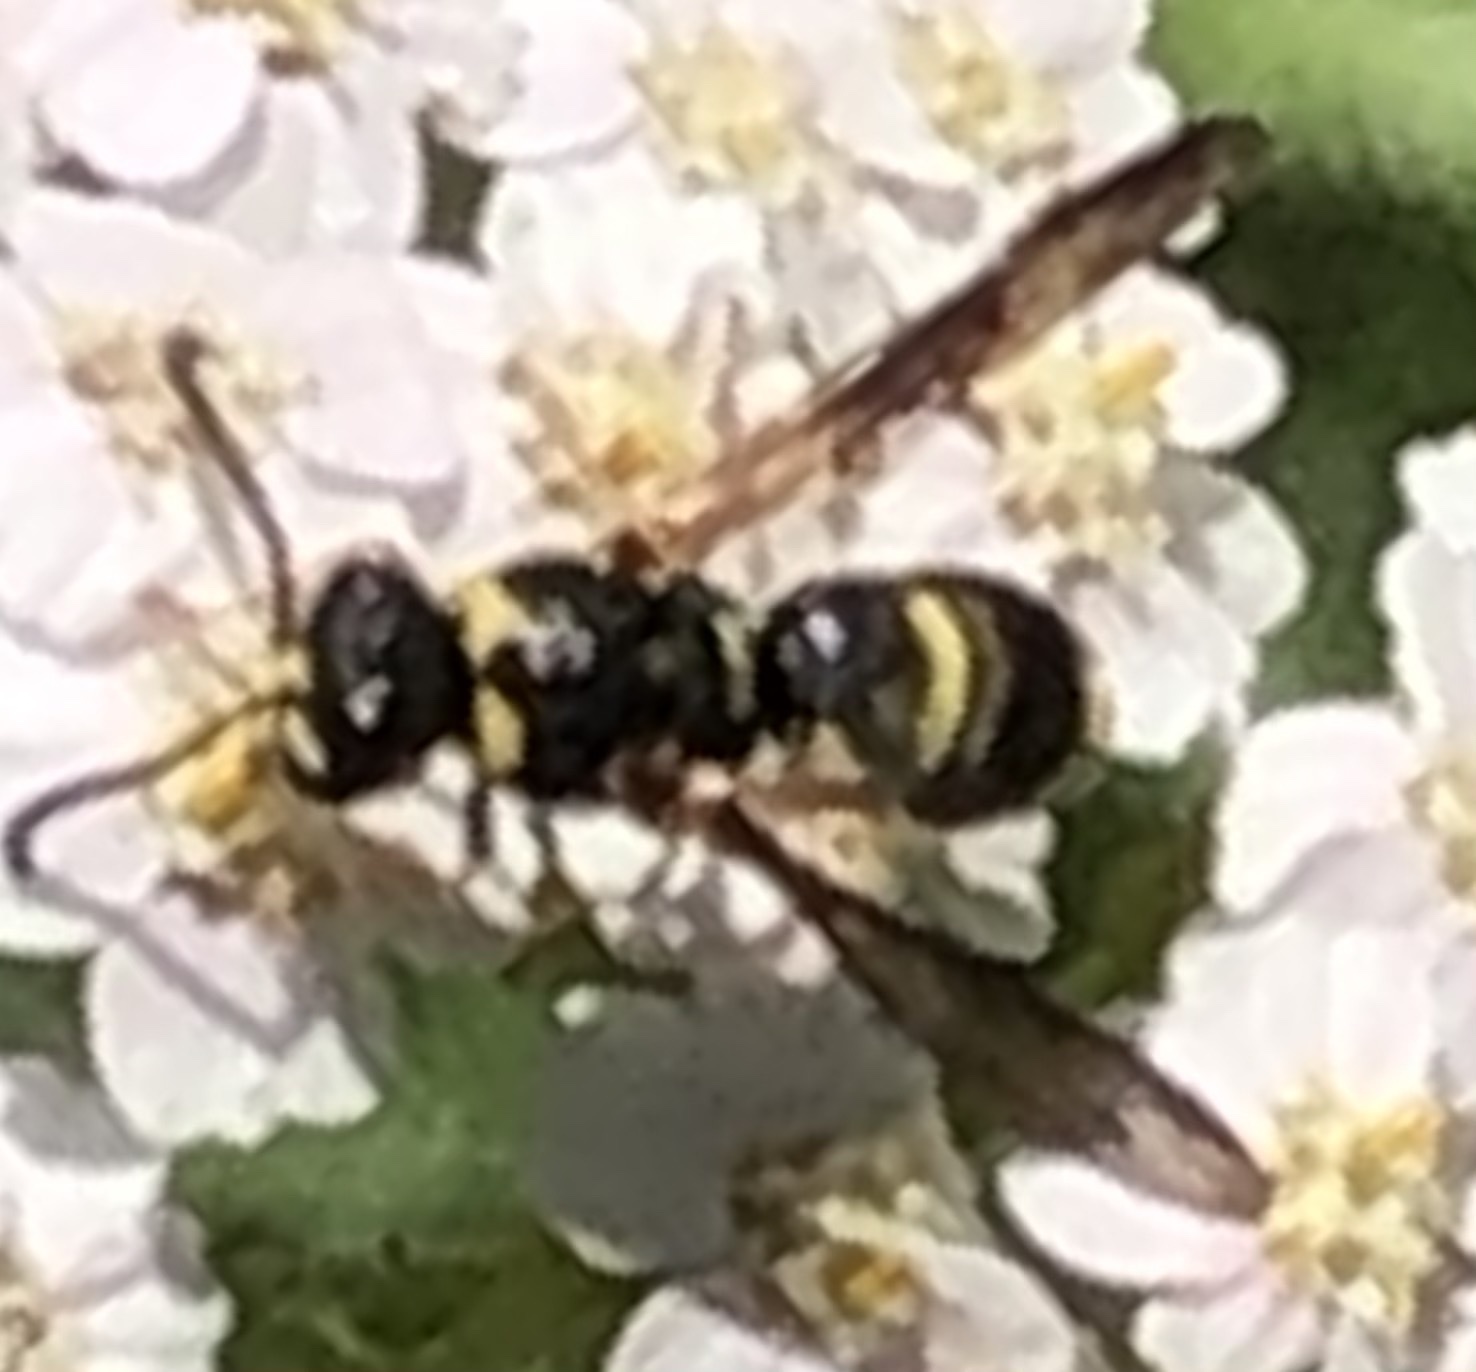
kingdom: Animalia
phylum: Arthropoda
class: Insecta
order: Hymenoptera
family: Eumenidae
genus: Parancistrocerus
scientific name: Parancistrocerus fulvipes
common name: Potter wasp
